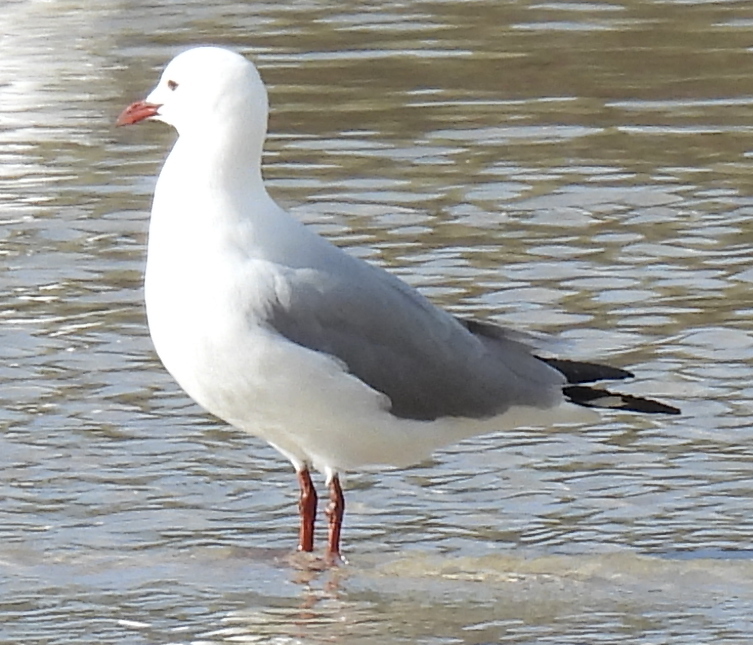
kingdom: Animalia
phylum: Chordata
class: Aves
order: Charadriiformes
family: Laridae
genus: Chroicocephalus
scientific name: Chroicocephalus hartlaubii
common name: Hartlaub's gull
